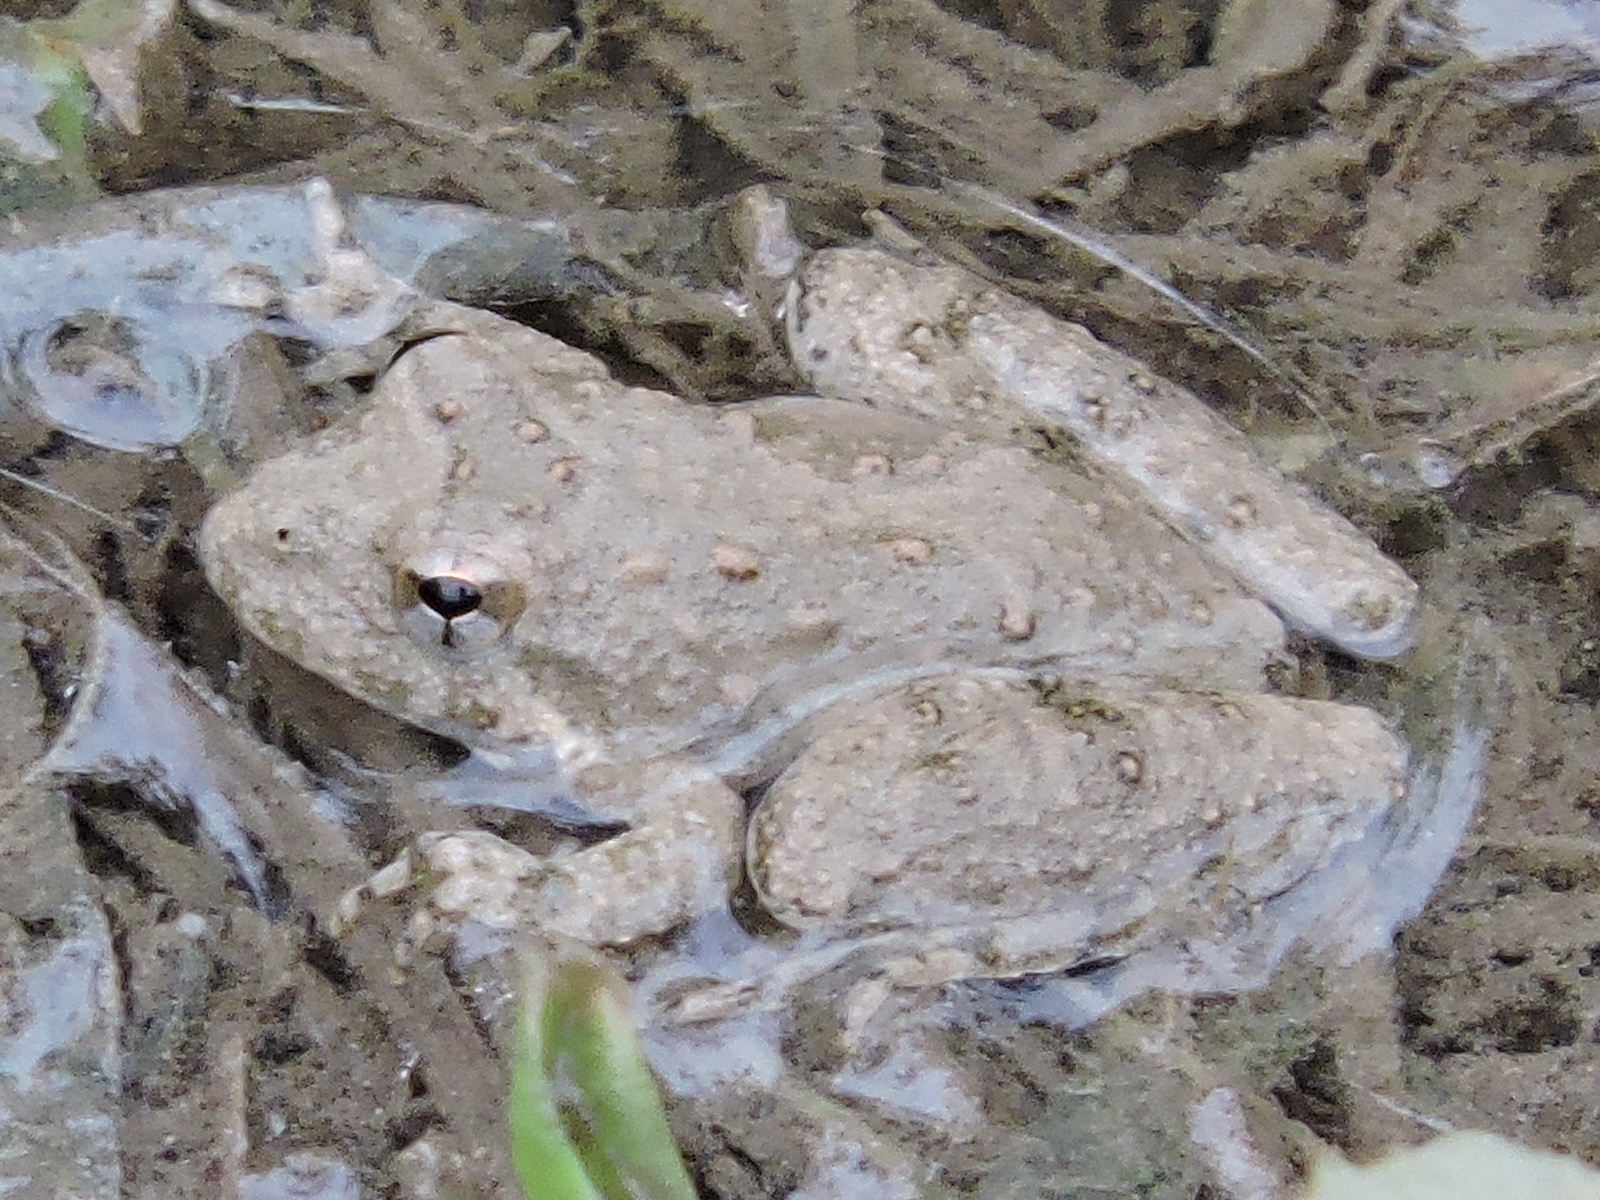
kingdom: Animalia
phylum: Chordata
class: Amphibia
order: Anura
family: Hylidae
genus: Acris
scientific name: Acris blanchardi
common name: Blanchard's cricket frog
